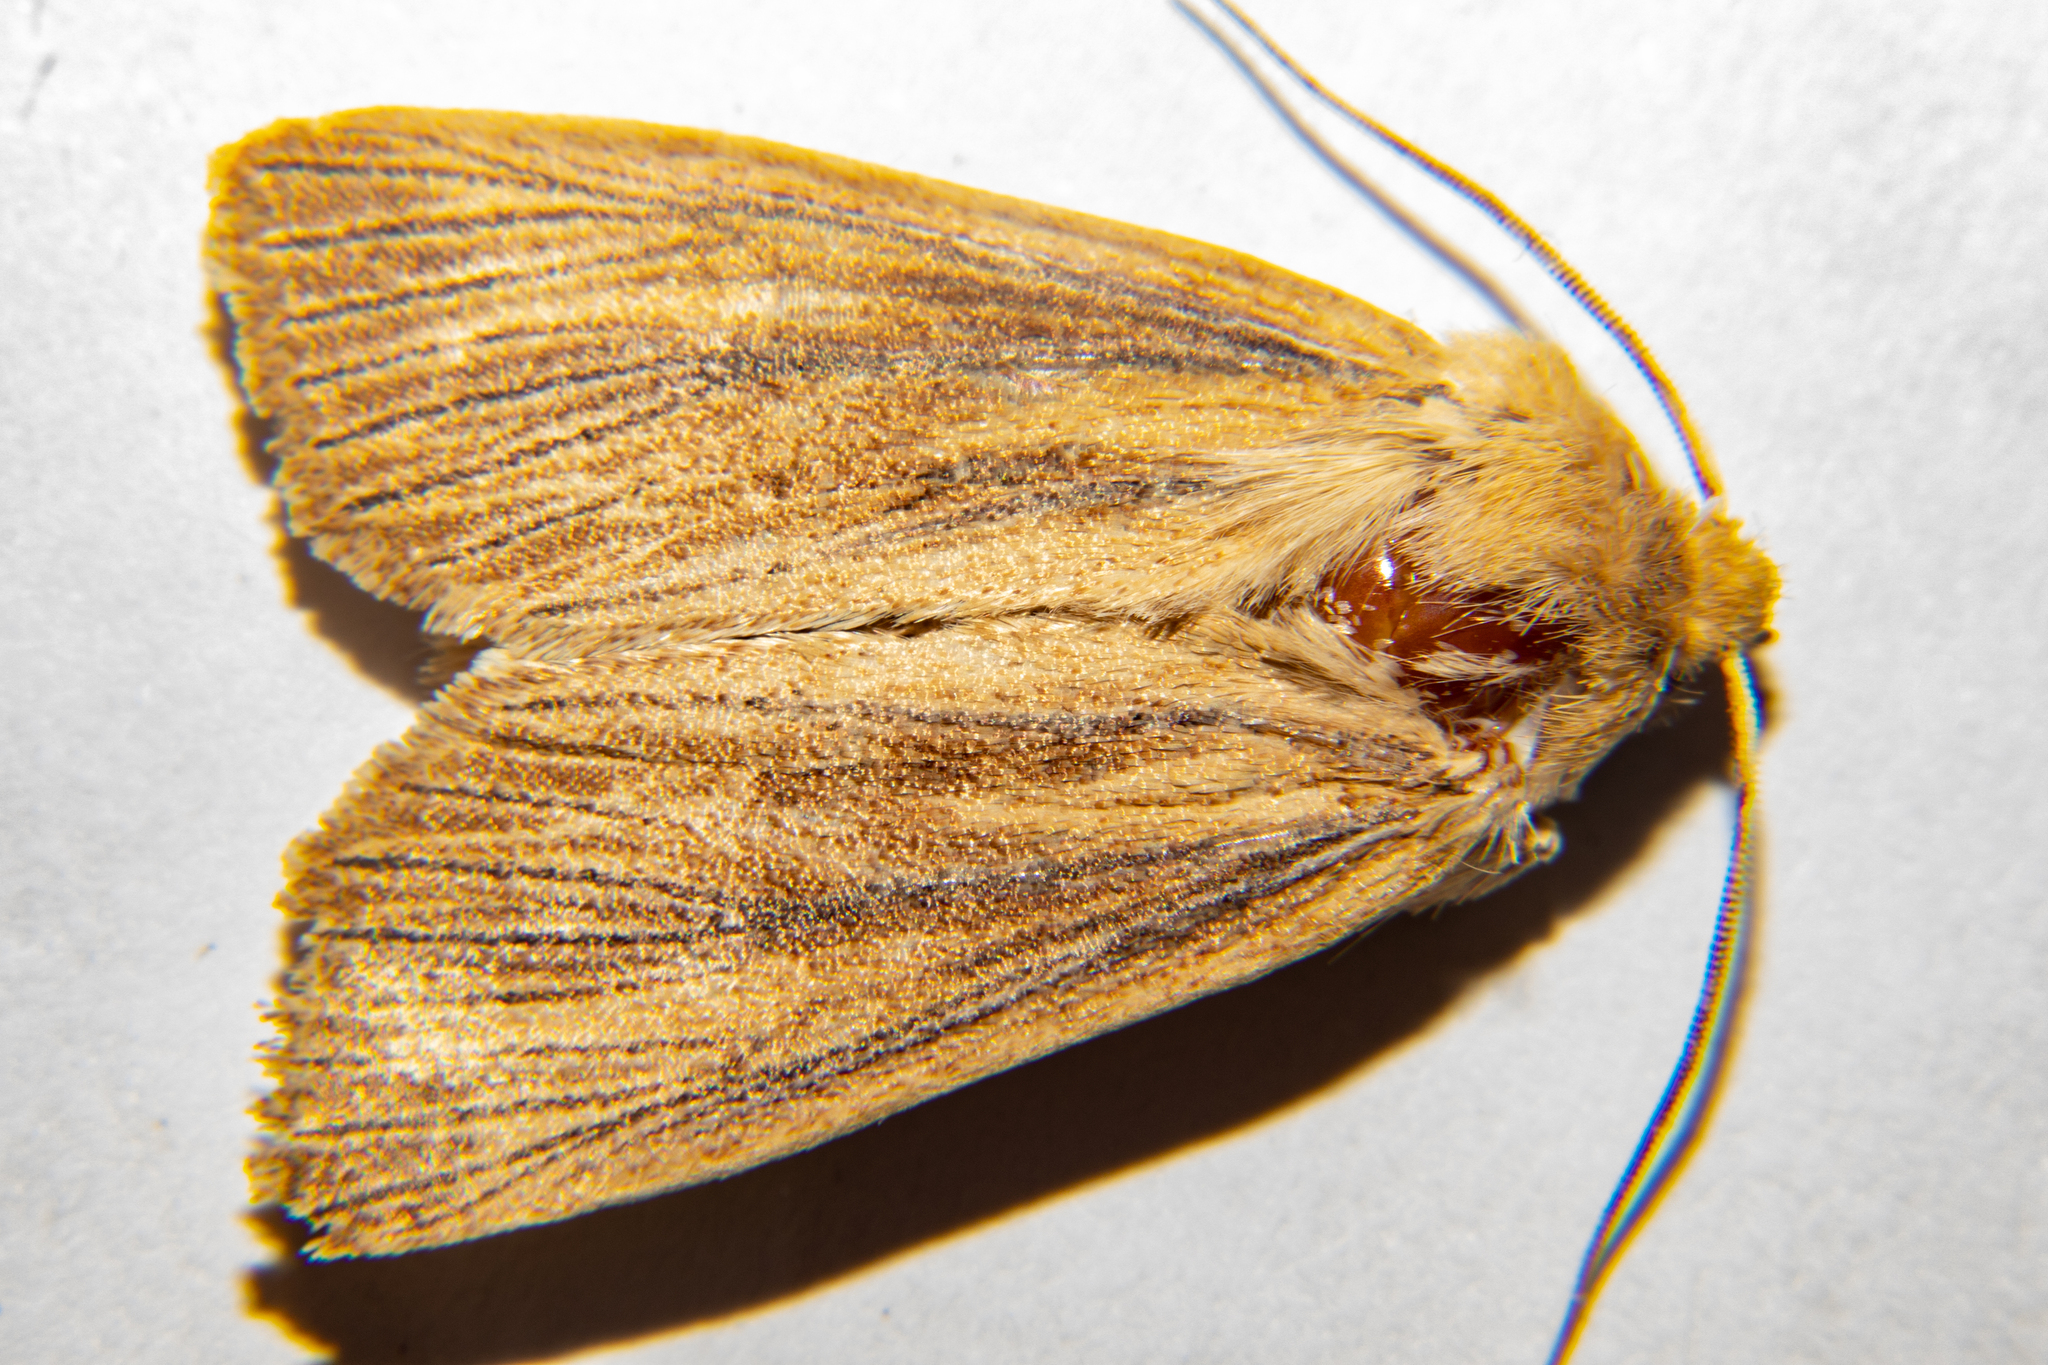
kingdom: Animalia
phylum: Arthropoda
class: Insecta
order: Lepidoptera
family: Noctuidae
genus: Ichneutica
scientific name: Ichneutica arotis
